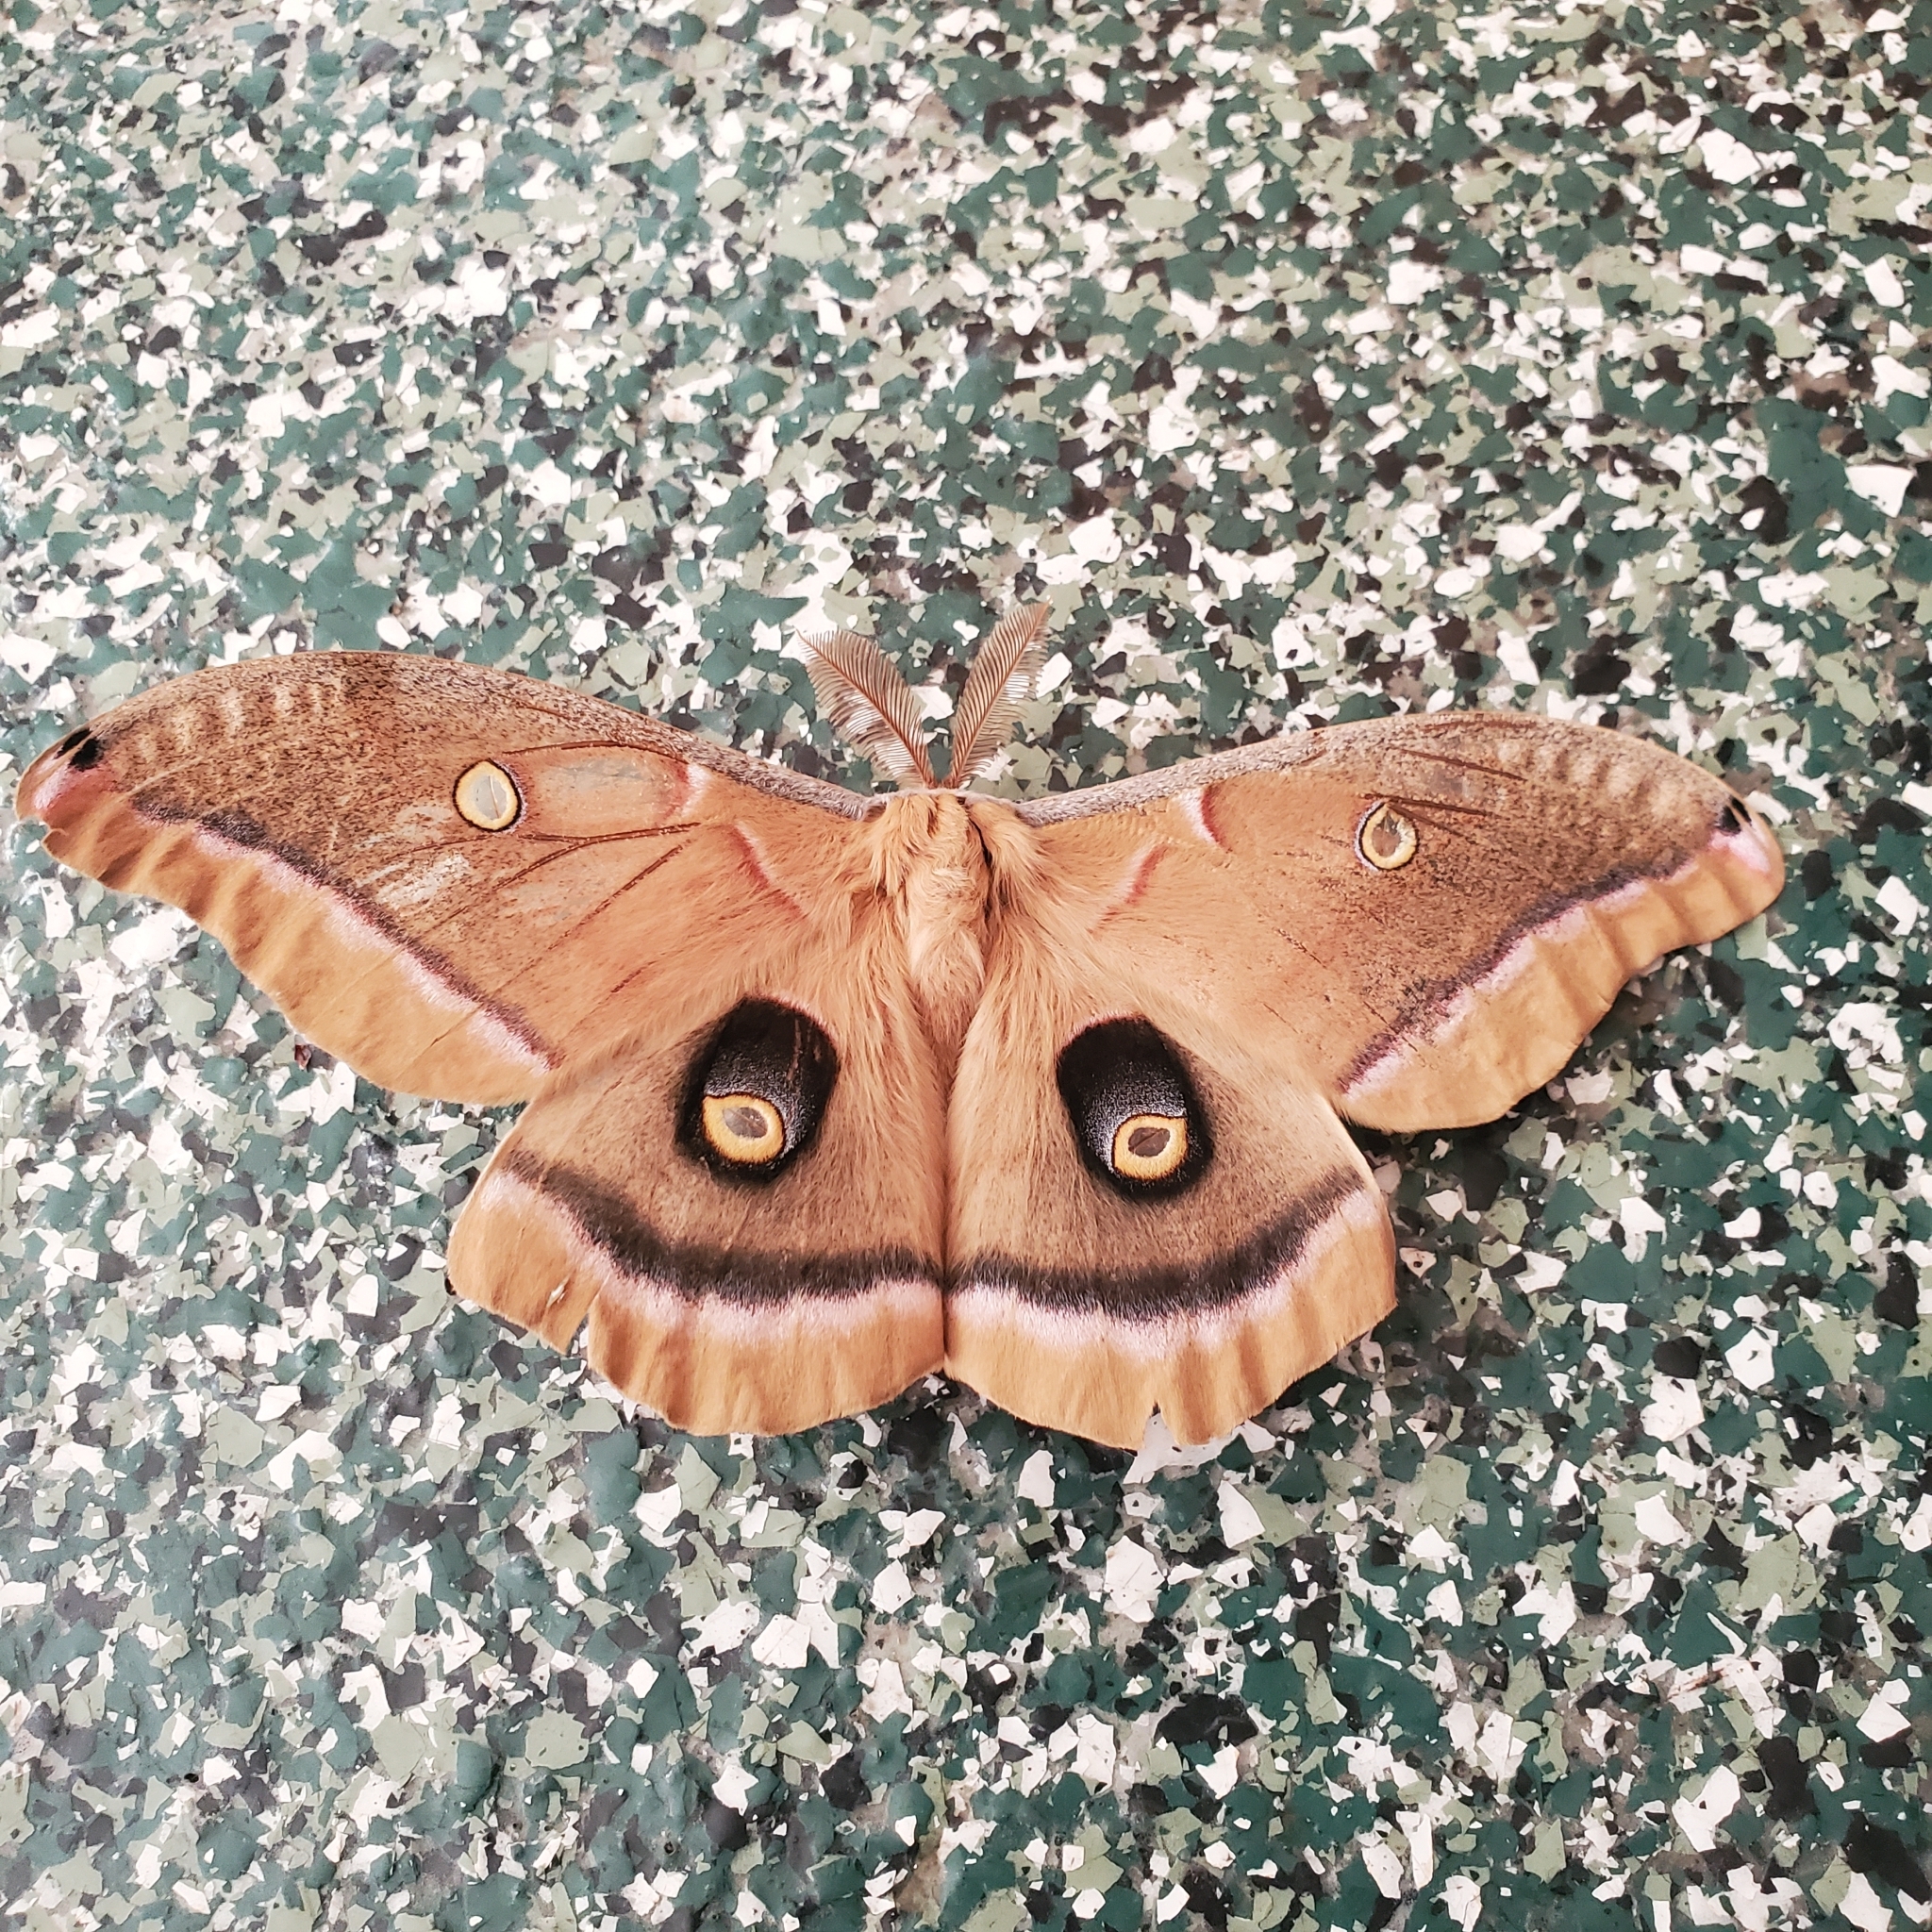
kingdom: Animalia
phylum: Arthropoda
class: Insecta
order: Lepidoptera
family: Saturniidae
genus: Antheraea
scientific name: Antheraea polyphemus
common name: Polyphemus moth
